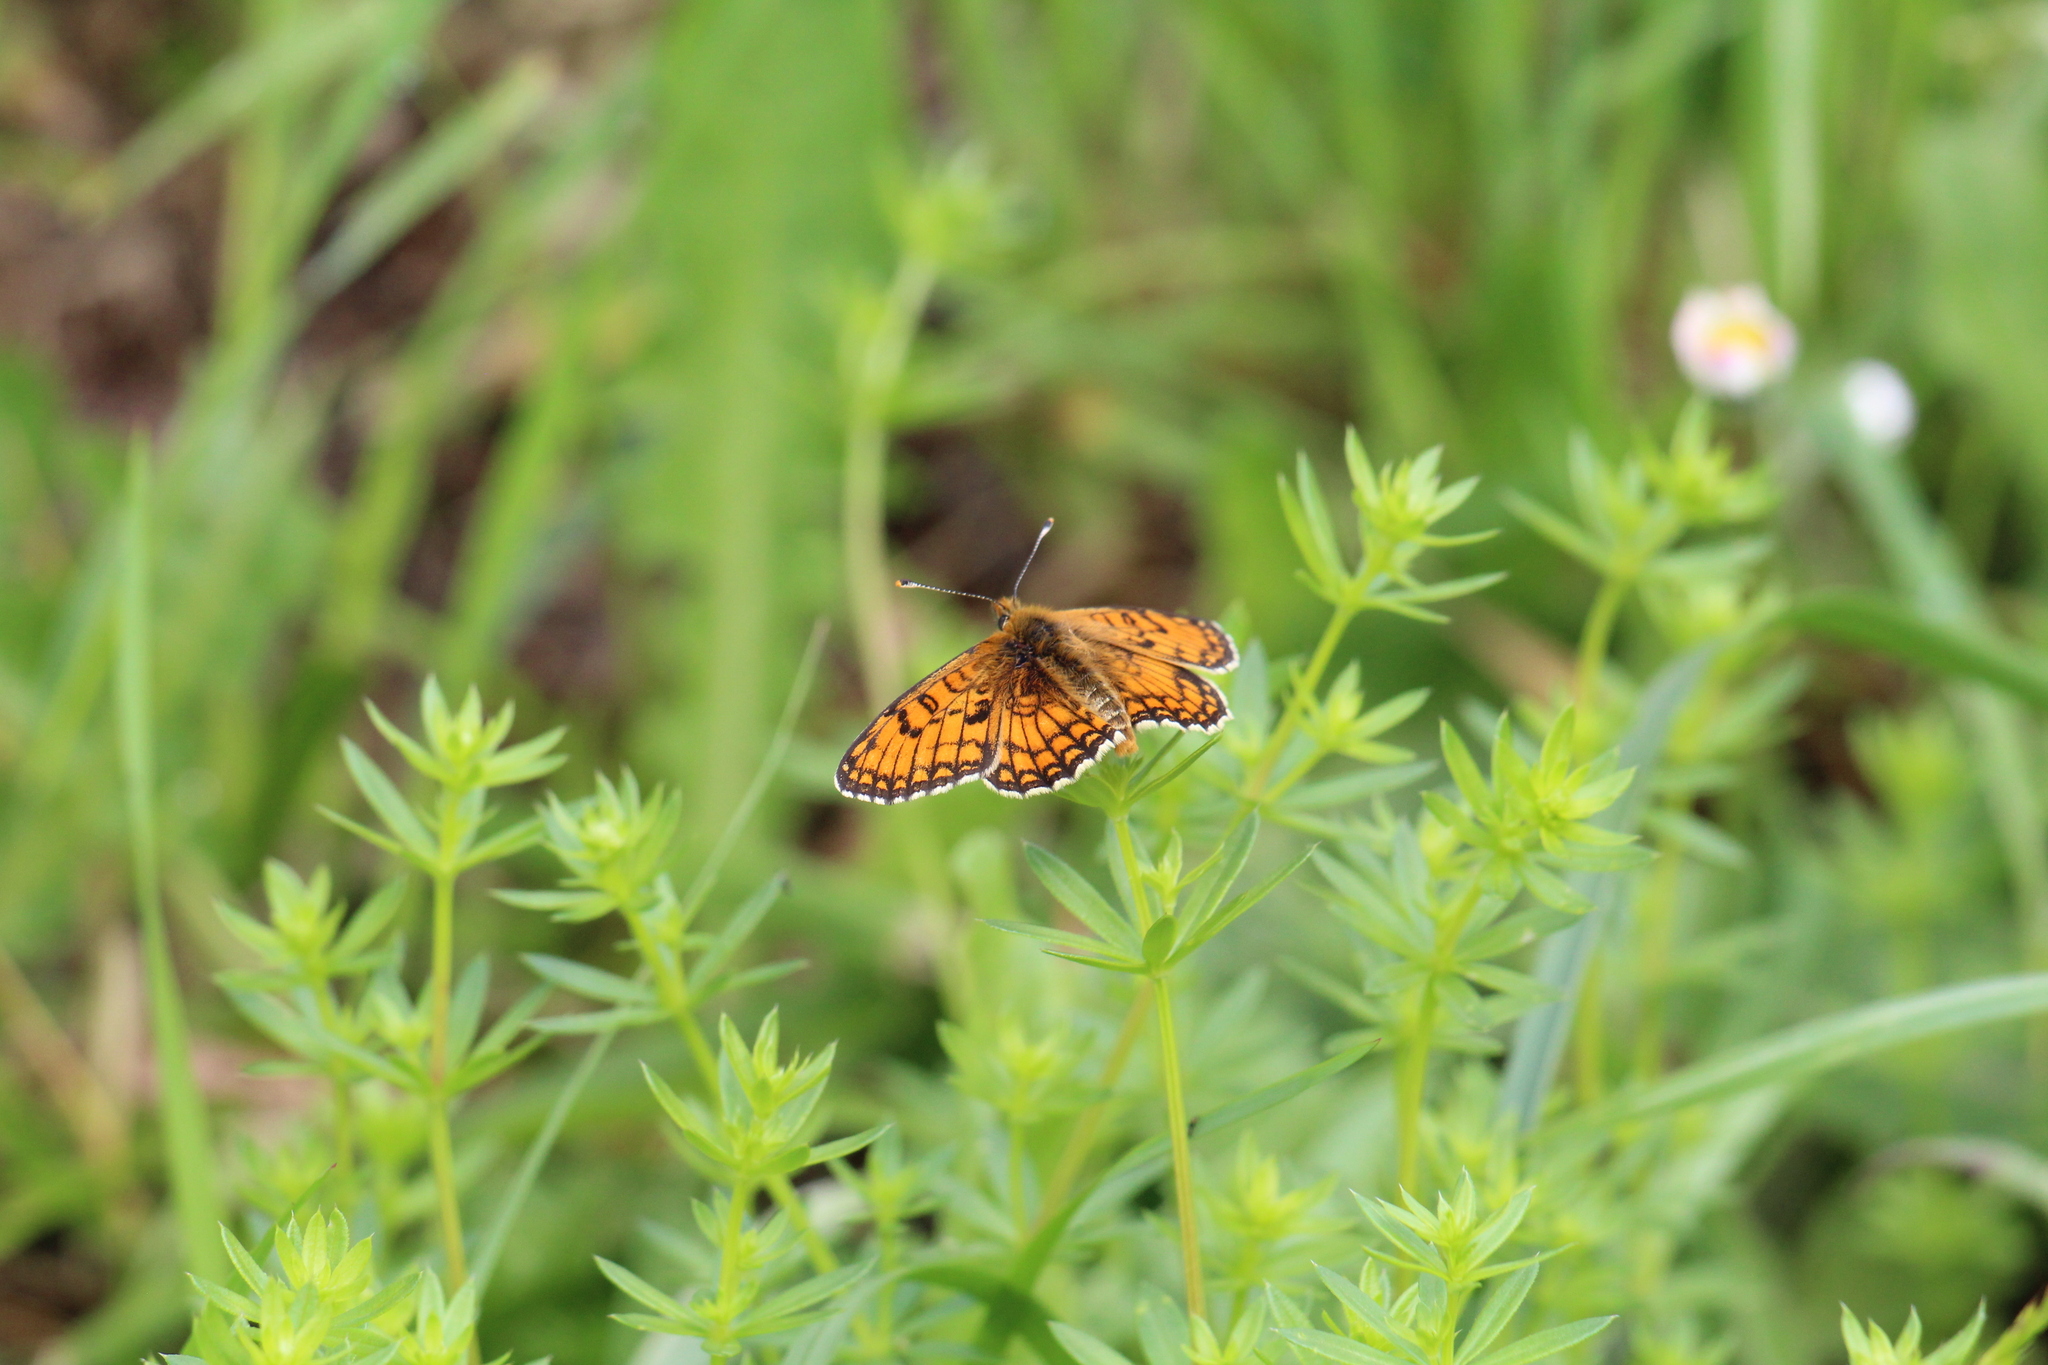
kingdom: Animalia
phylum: Arthropoda
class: Insecta
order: Lepidoptera
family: Nymphalidae
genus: Mellicta
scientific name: Mellicta parthenoides
